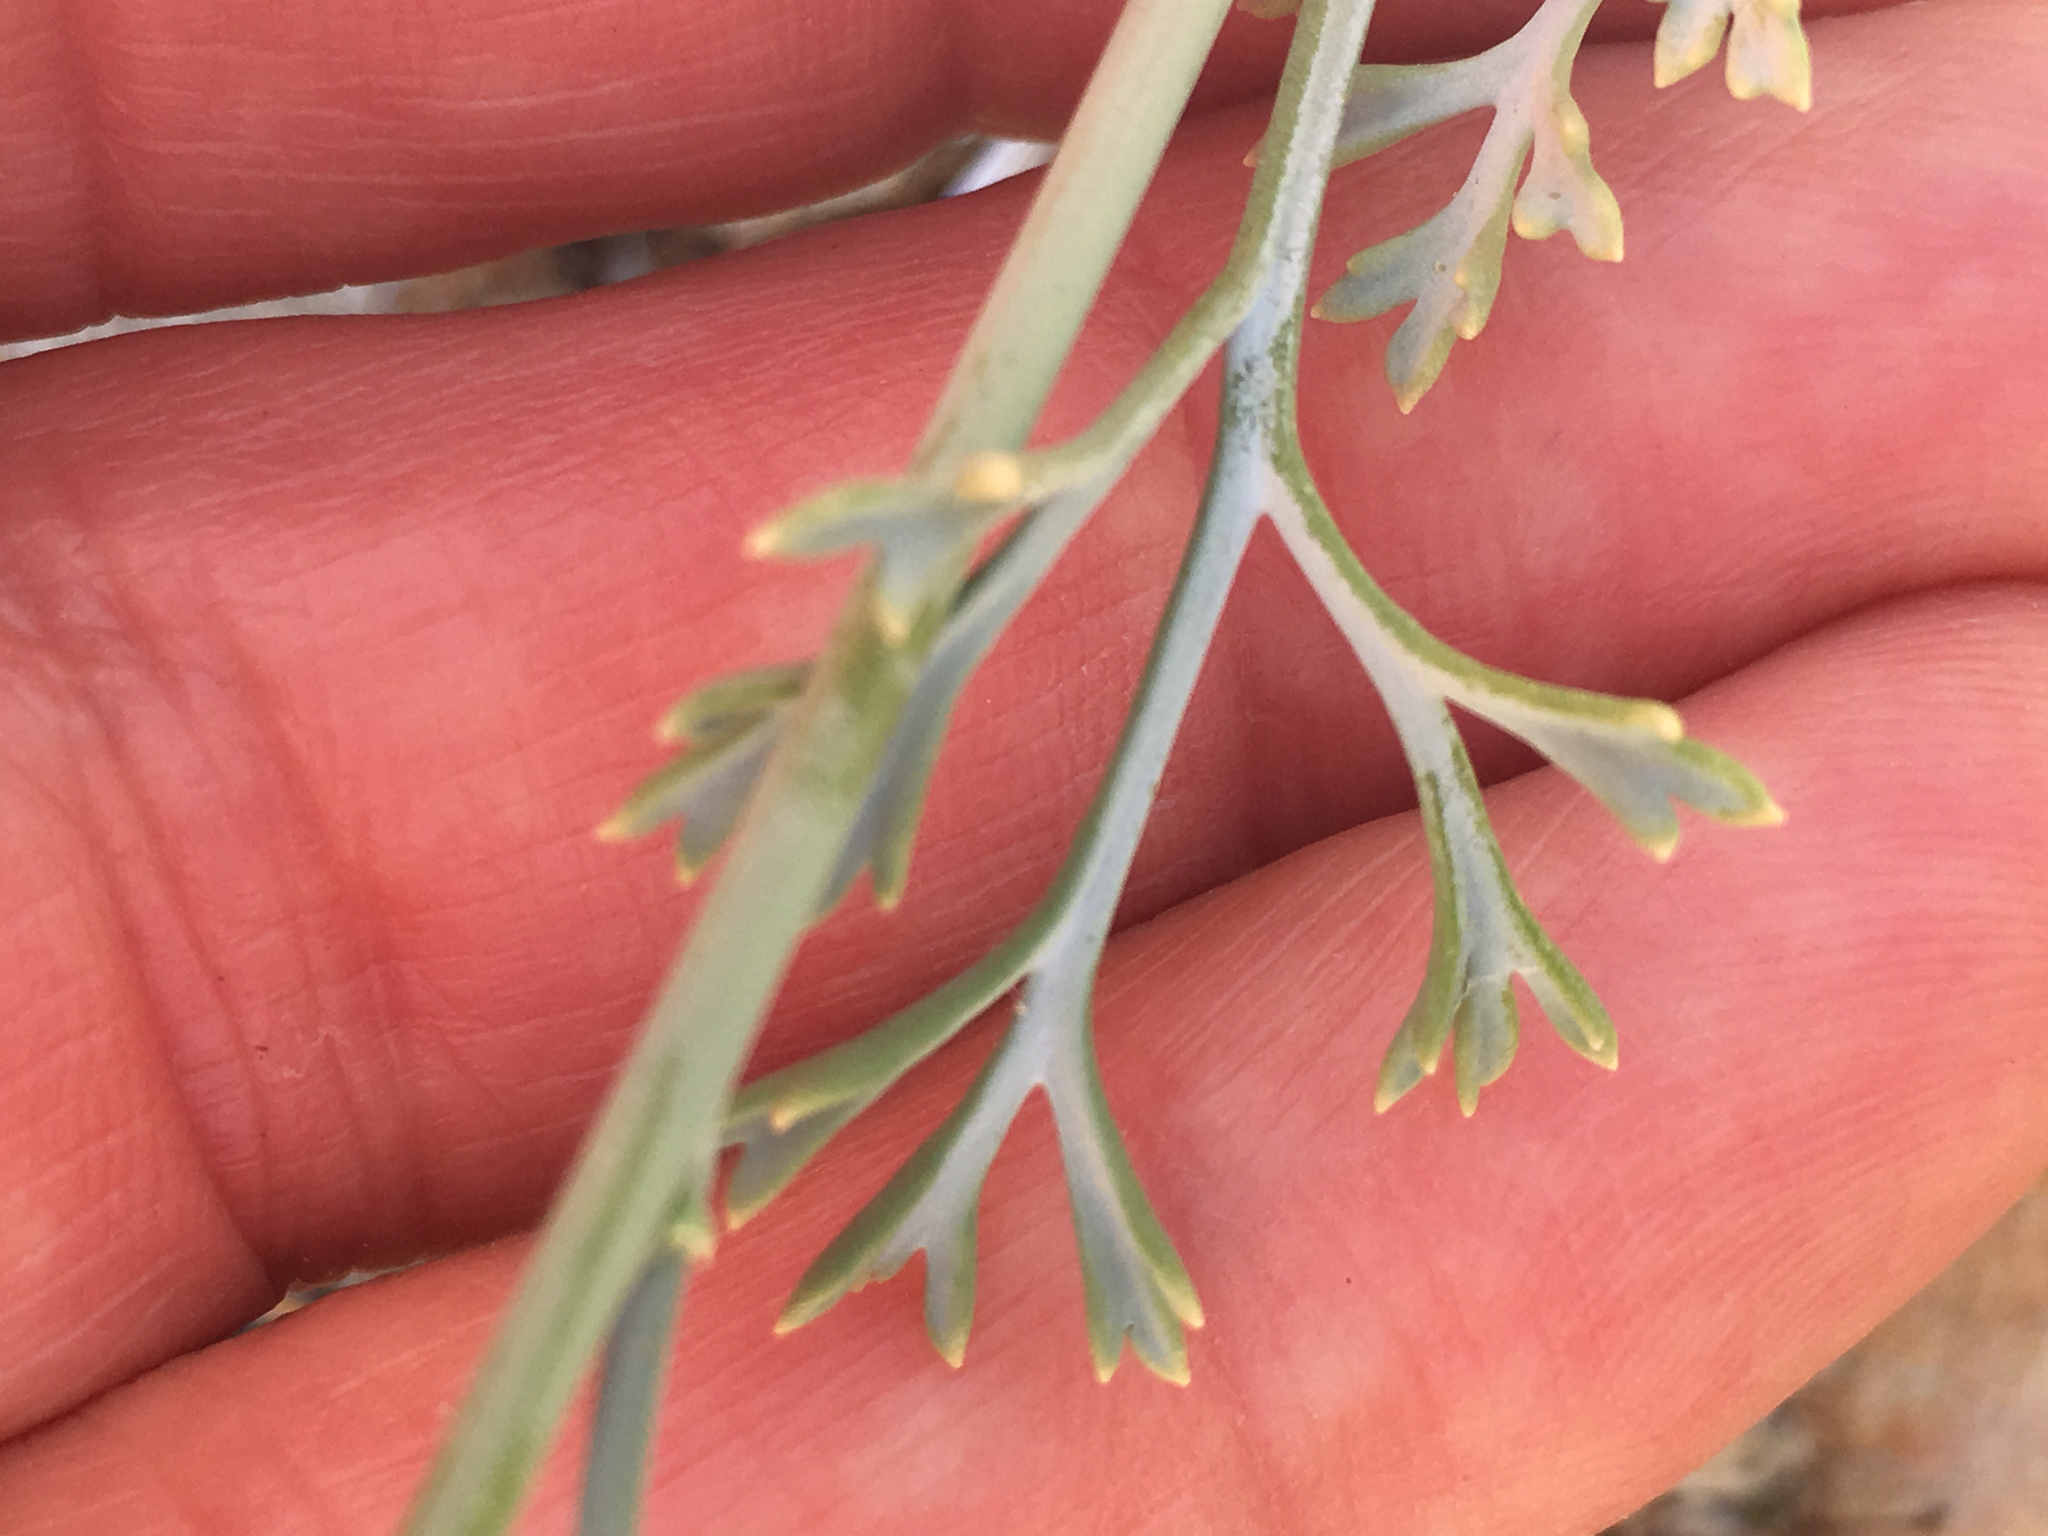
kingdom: Plantae
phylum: Tracheophyta
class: Magnoliopsida
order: Ranunculales
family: Papaveraceae
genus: Eschscholzia
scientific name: Eschscholzia parishii
